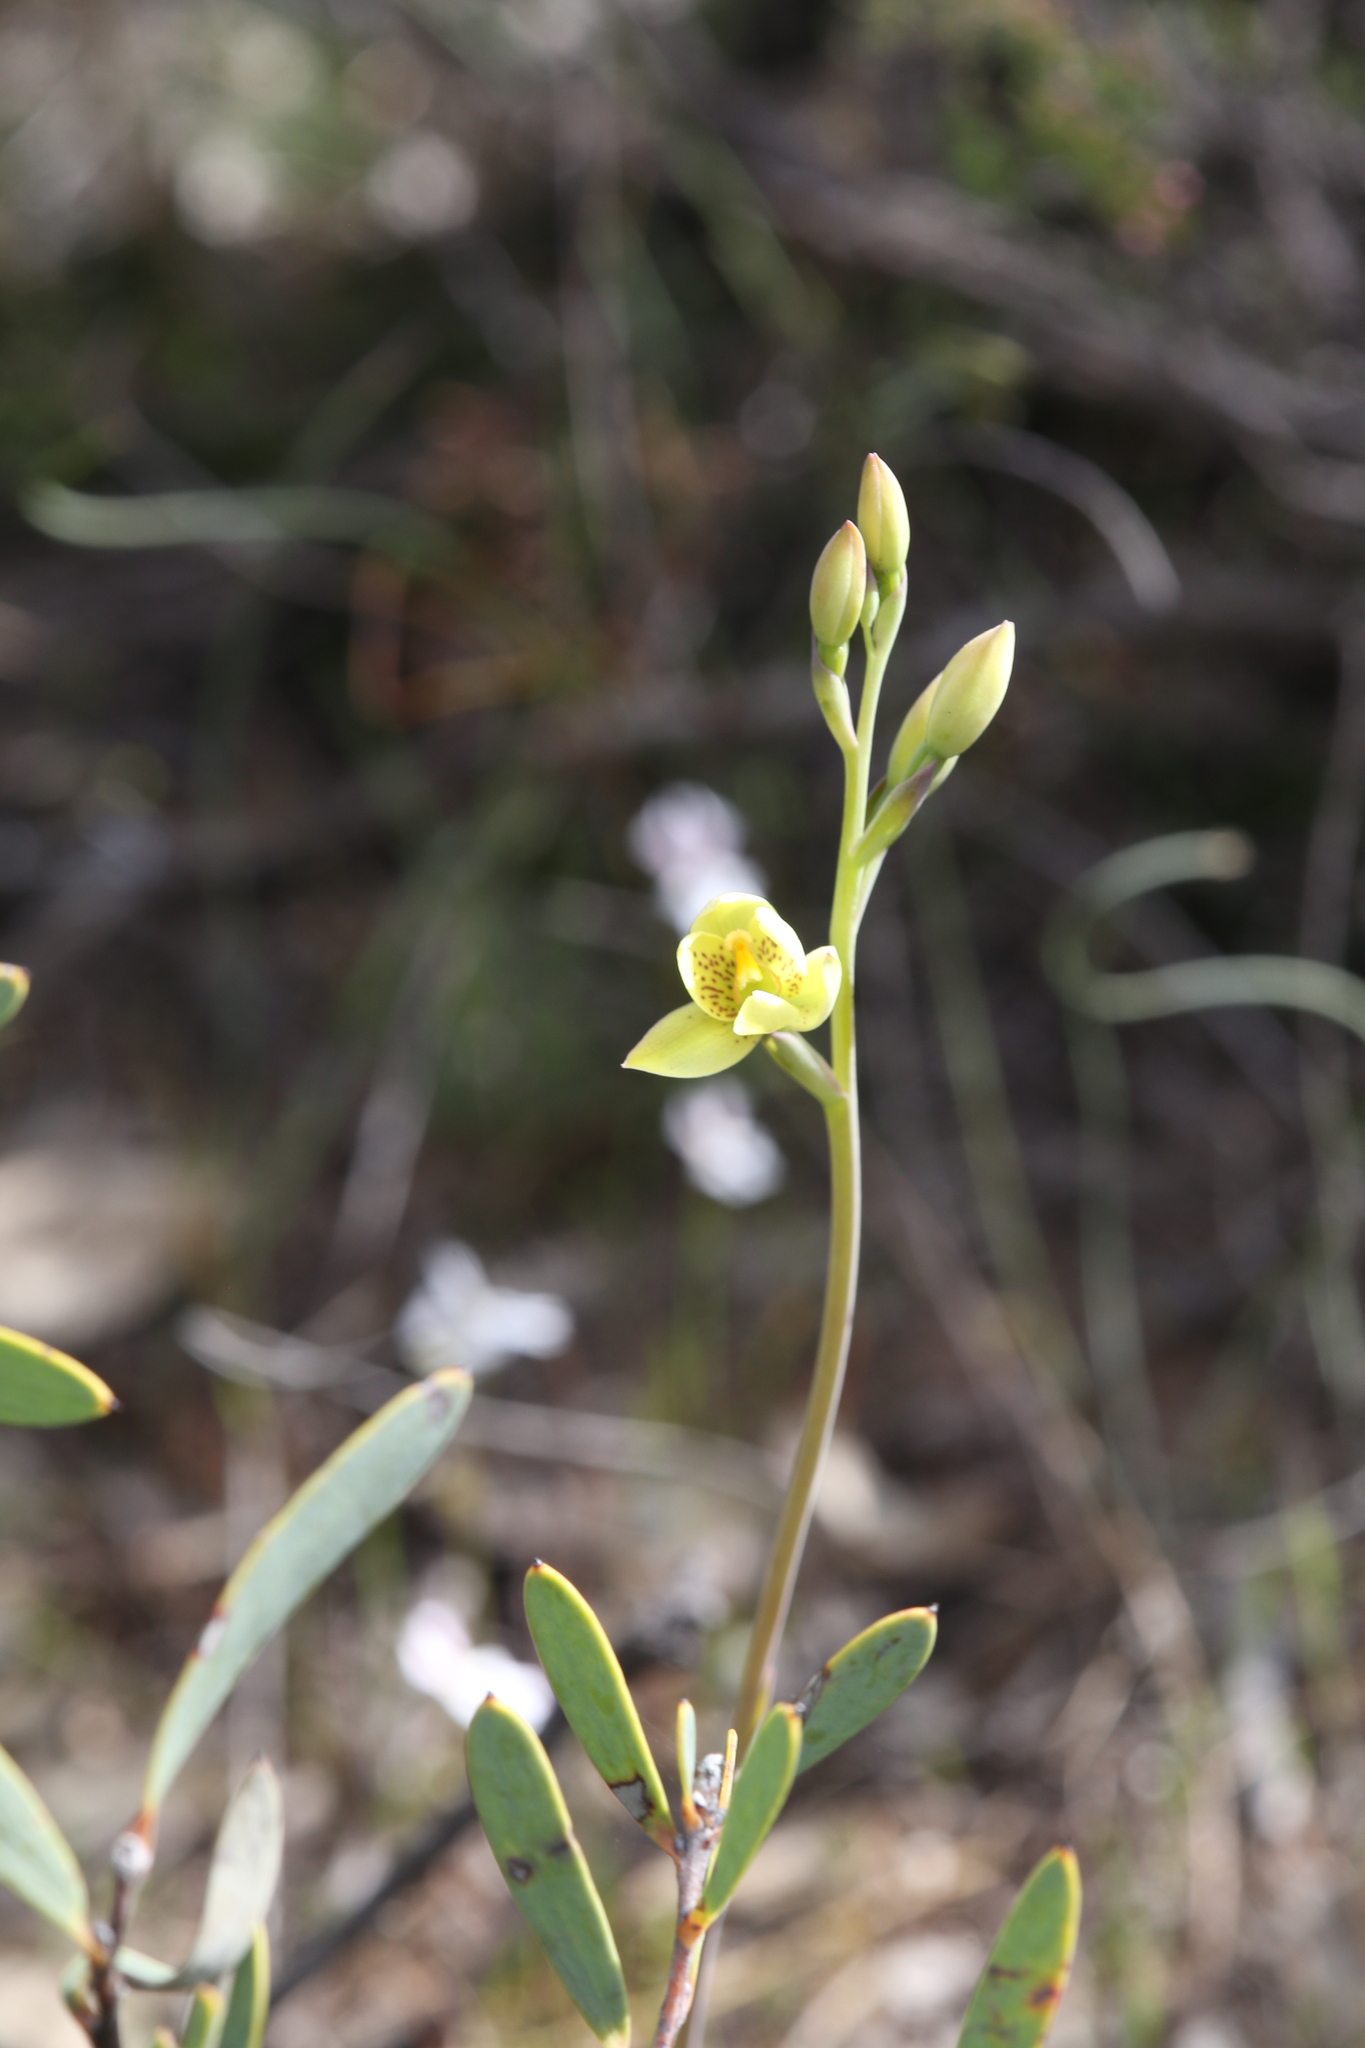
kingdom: Plantae
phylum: Tracheophyta
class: Liliopsida
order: Asparagales
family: Orchidaceae
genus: Thelymitra
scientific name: Thelymitra villosa
